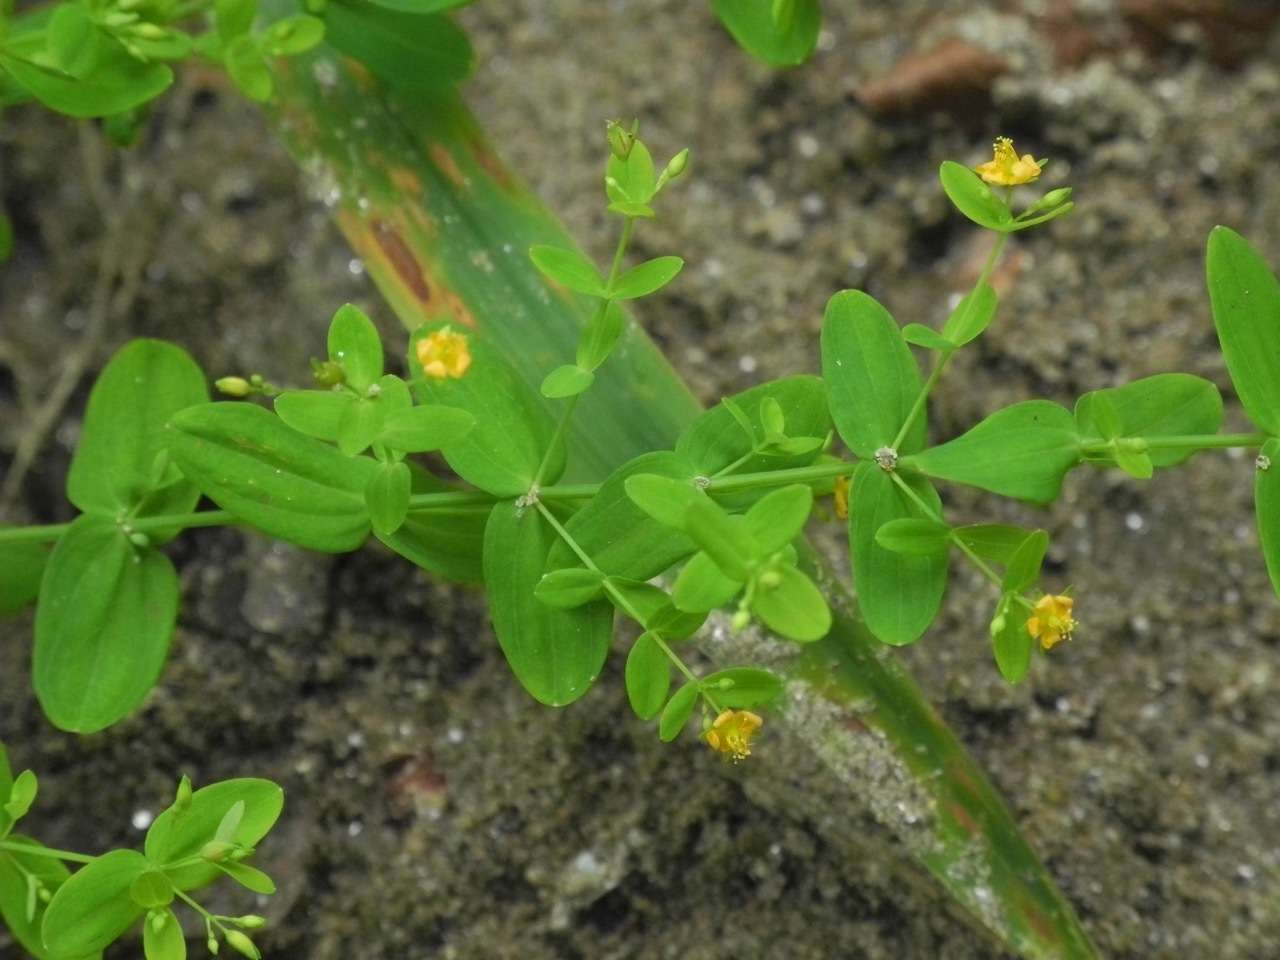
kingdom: Plantae
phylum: Tracheophyta
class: Magnoliopsida
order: Malpighiales
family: Hypericaceae
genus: Hypericum
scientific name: Hypericum mutilum
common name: Dwarf st. john's-wort
